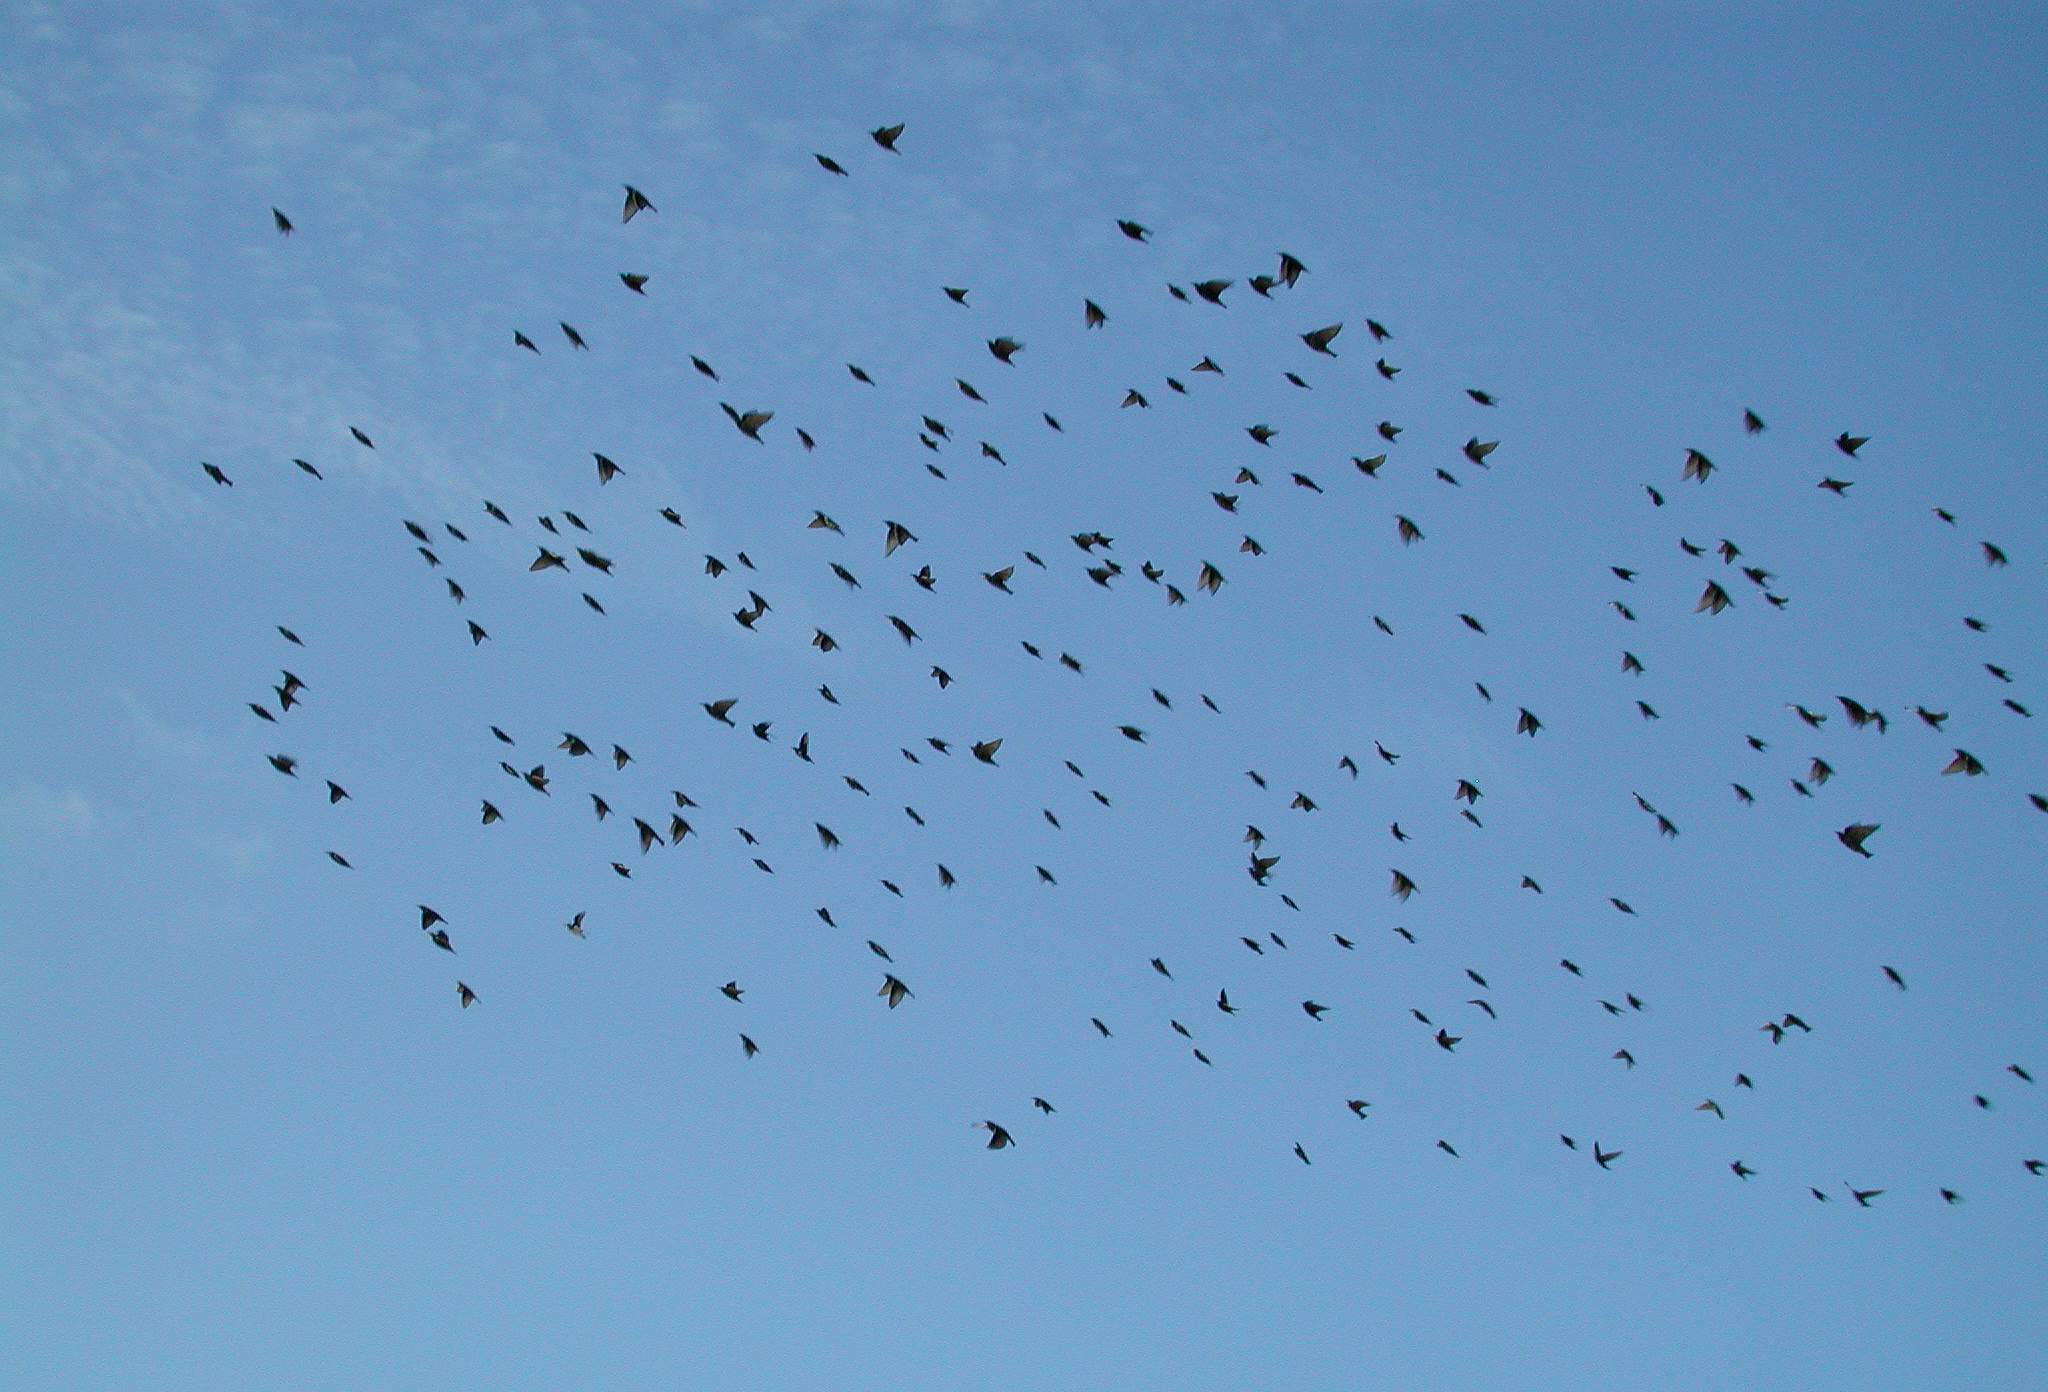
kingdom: Animalia
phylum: Chordata
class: Aves
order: Passeriformes
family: Sturnidae
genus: Sturnus
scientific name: Sturnus vulgaris
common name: Common starling
